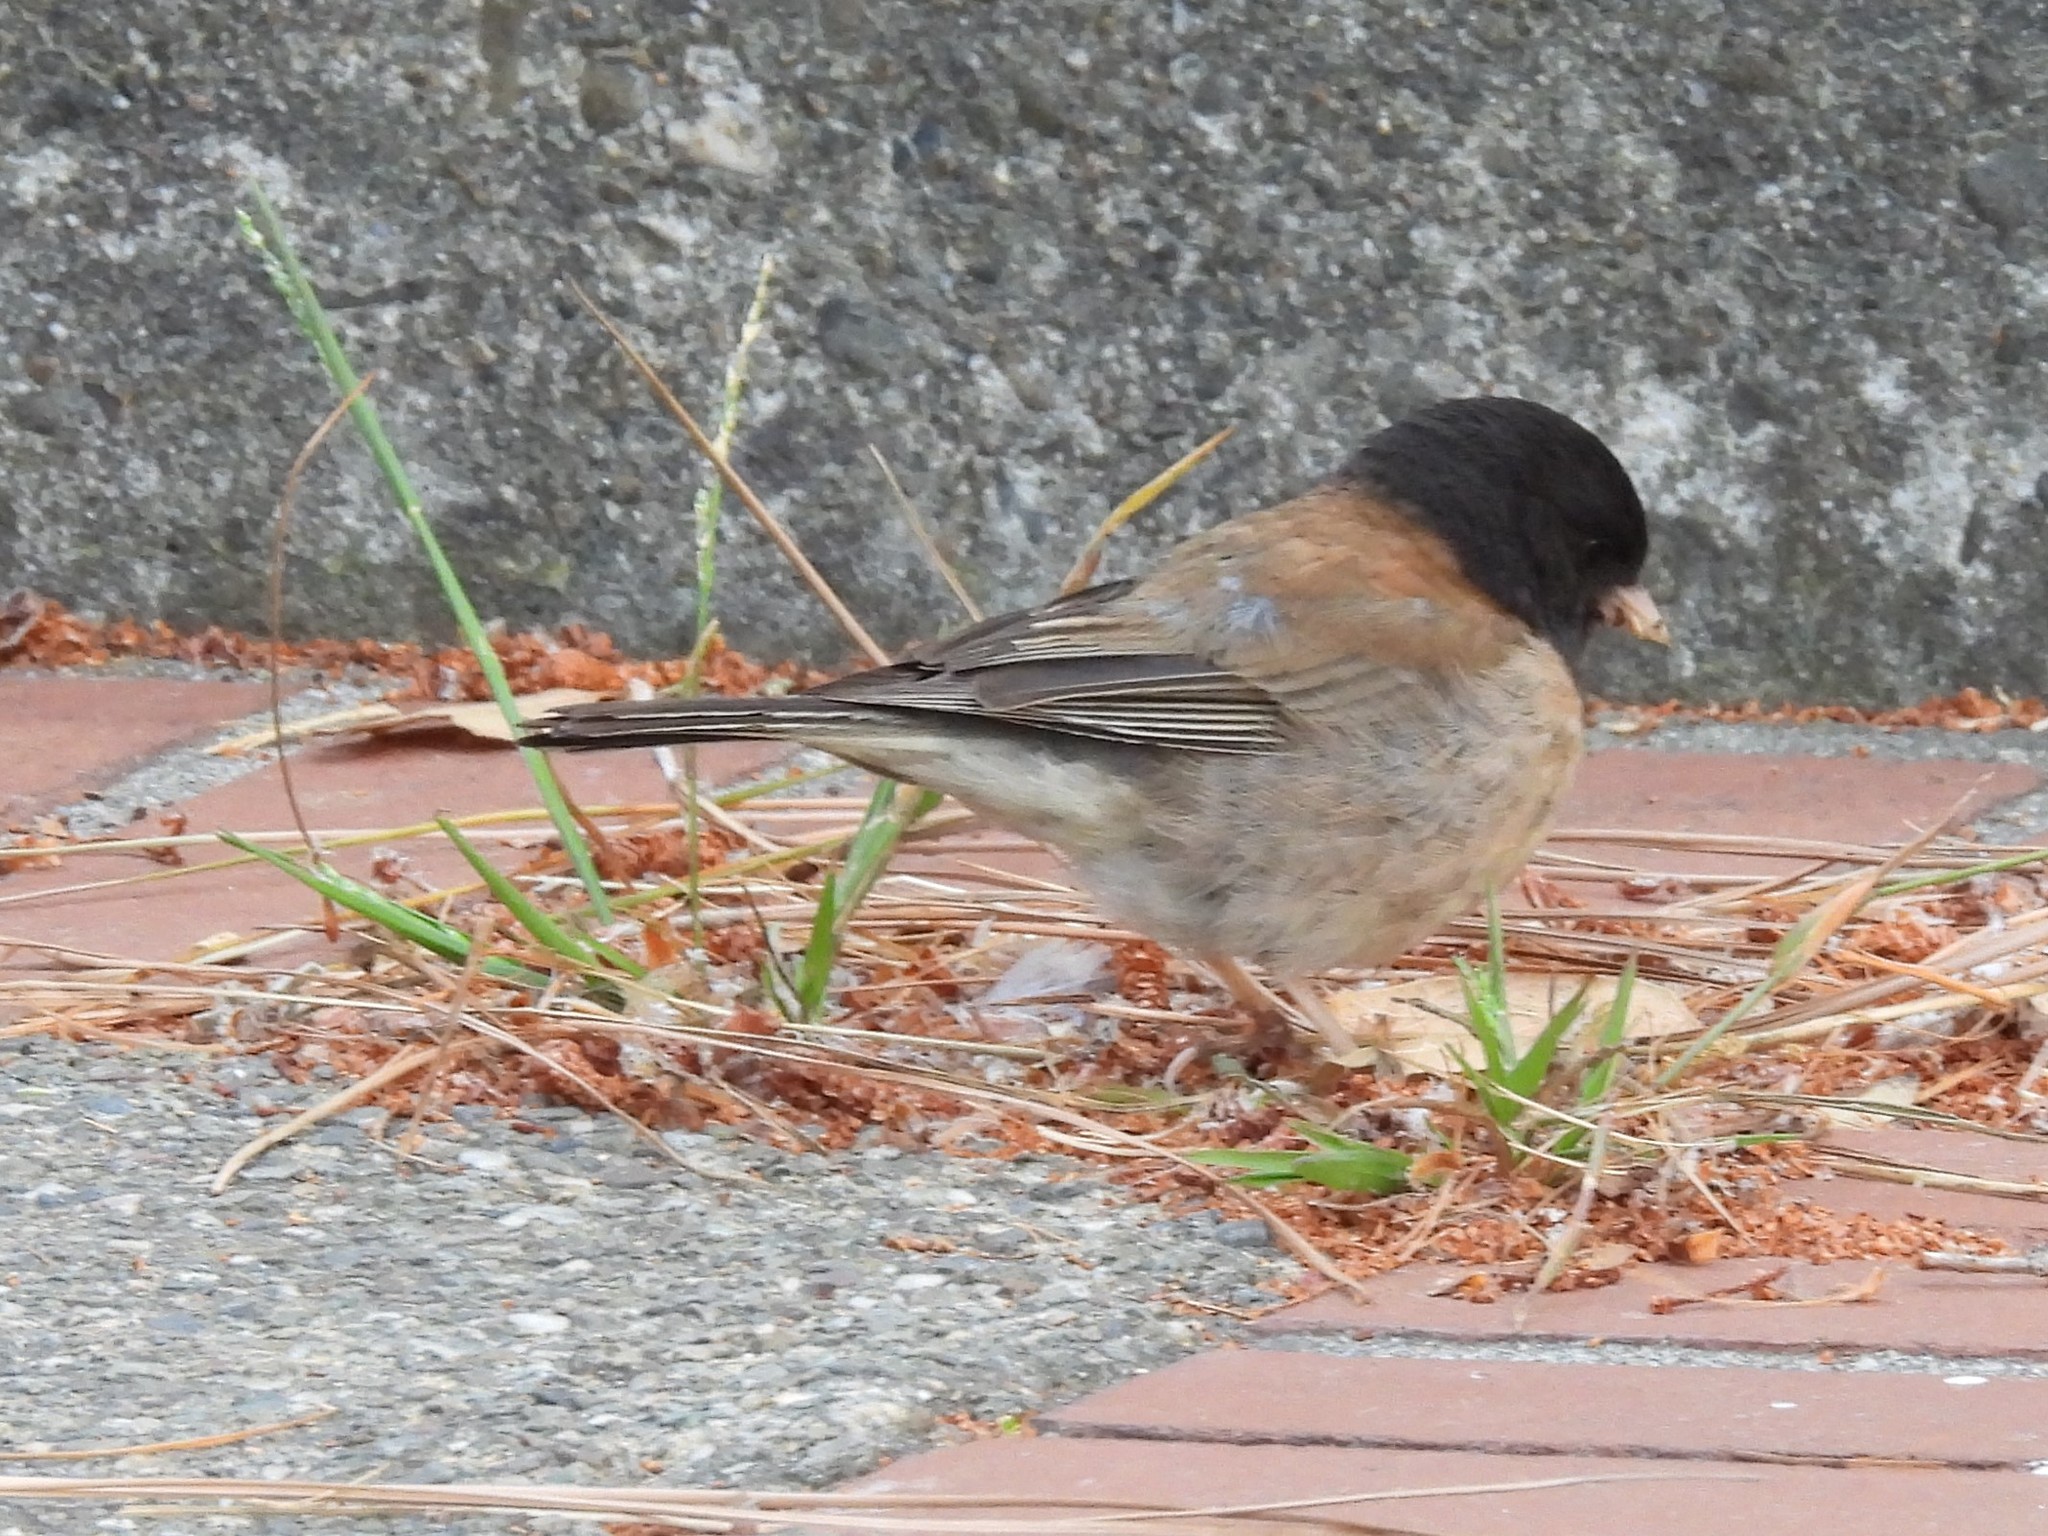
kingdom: Animalia
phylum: Chordata
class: Aves
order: Passeriformes
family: Passerellidae
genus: Junco
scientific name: Junco hyemalis
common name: Dark-eyed junco
